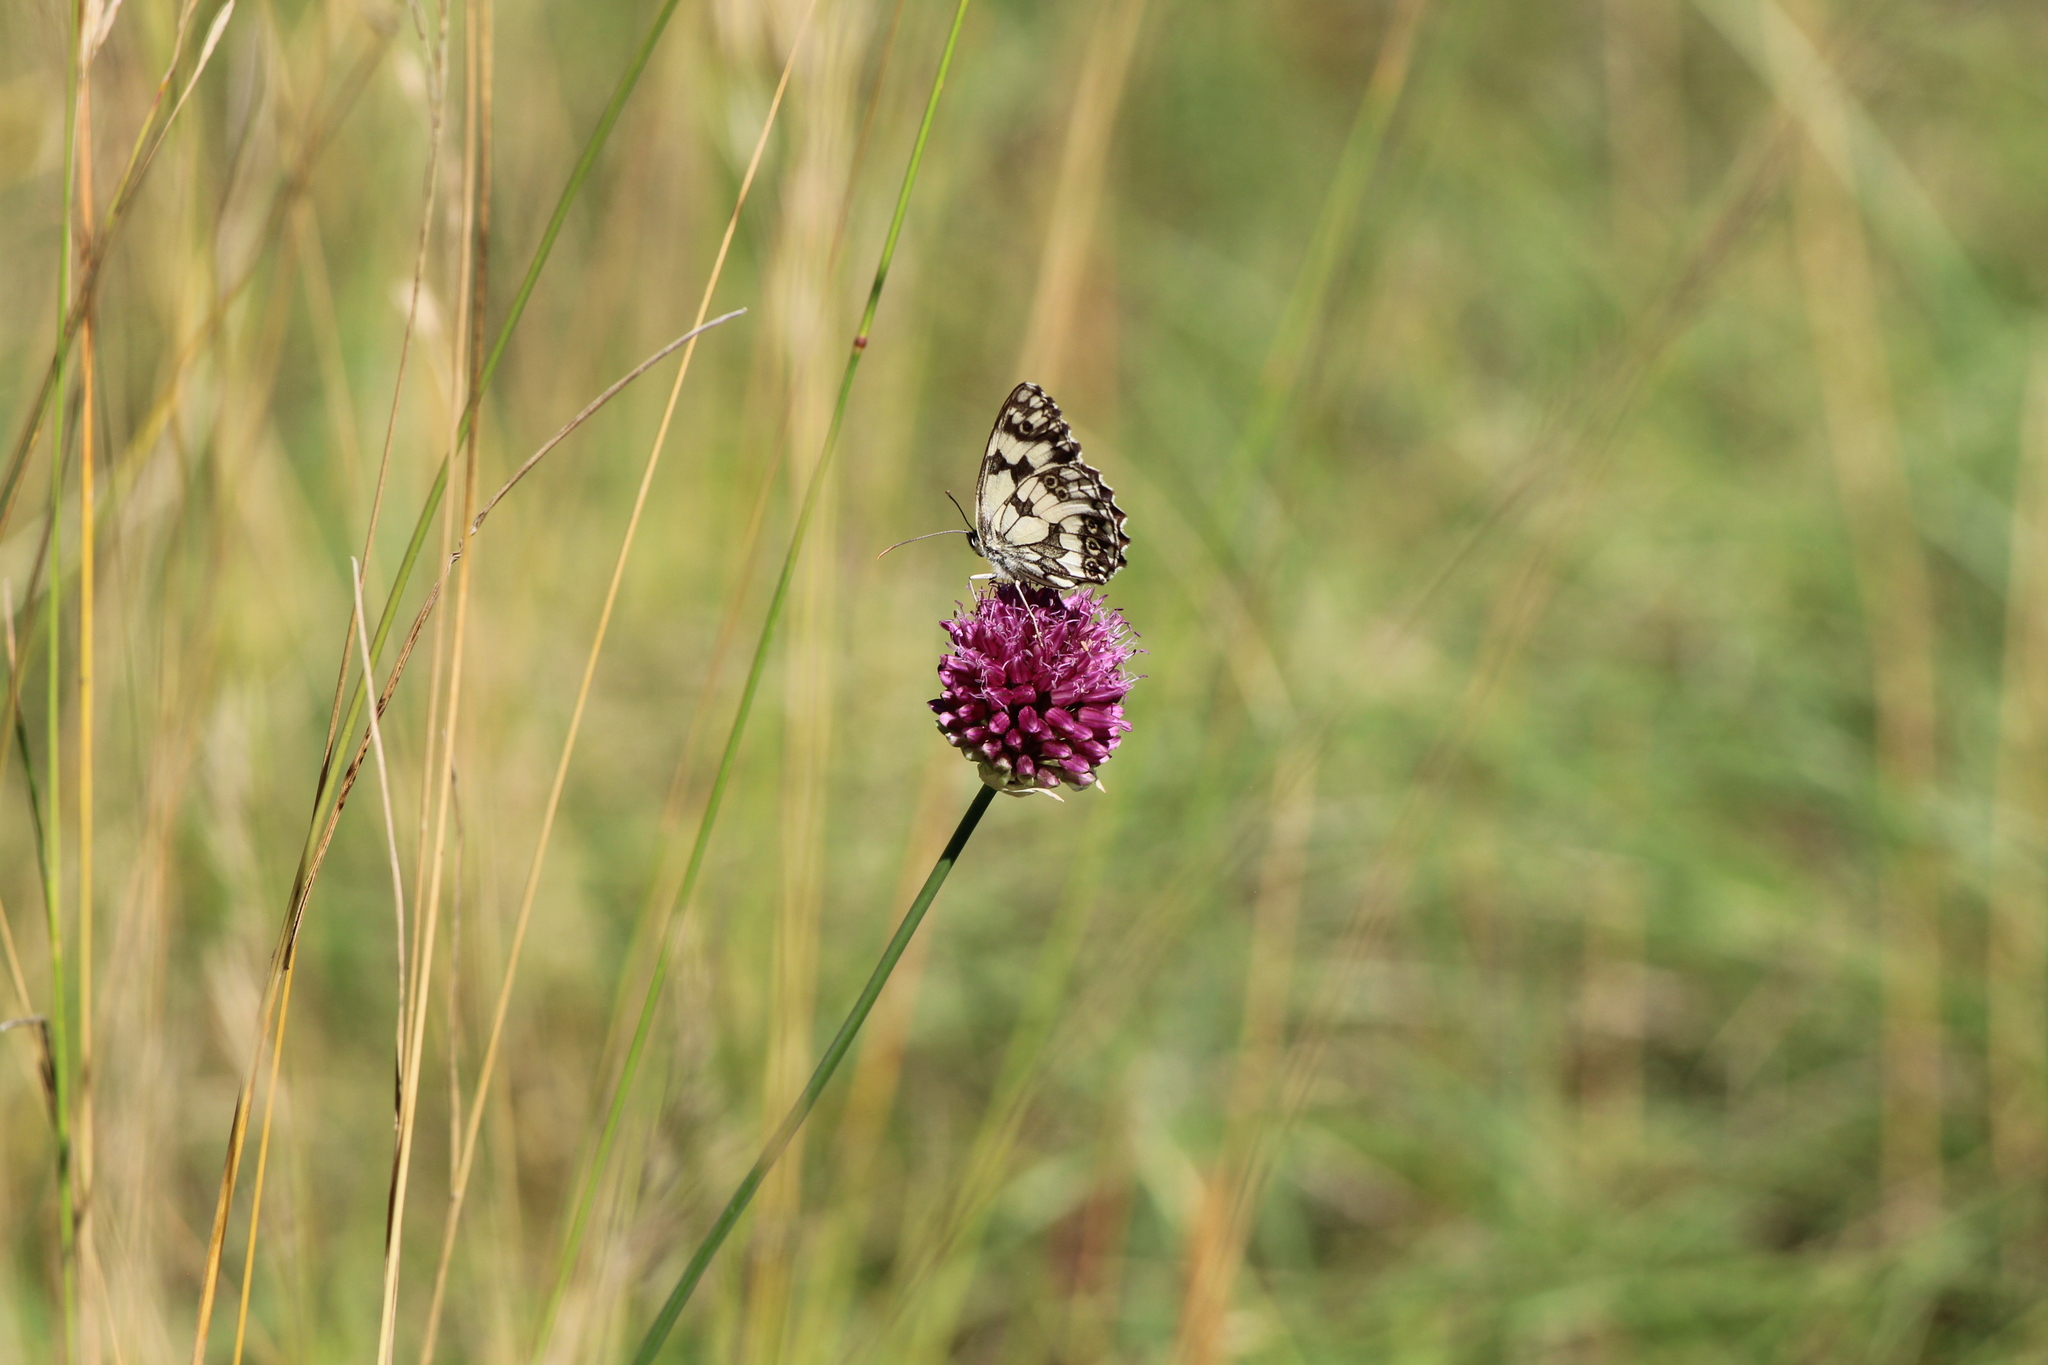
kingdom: Animalia
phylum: Arthropoda
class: Insecta
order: Lepidoptera
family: Nymphalidae
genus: Melanargia
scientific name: Melanargia galathea
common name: Marbled white
